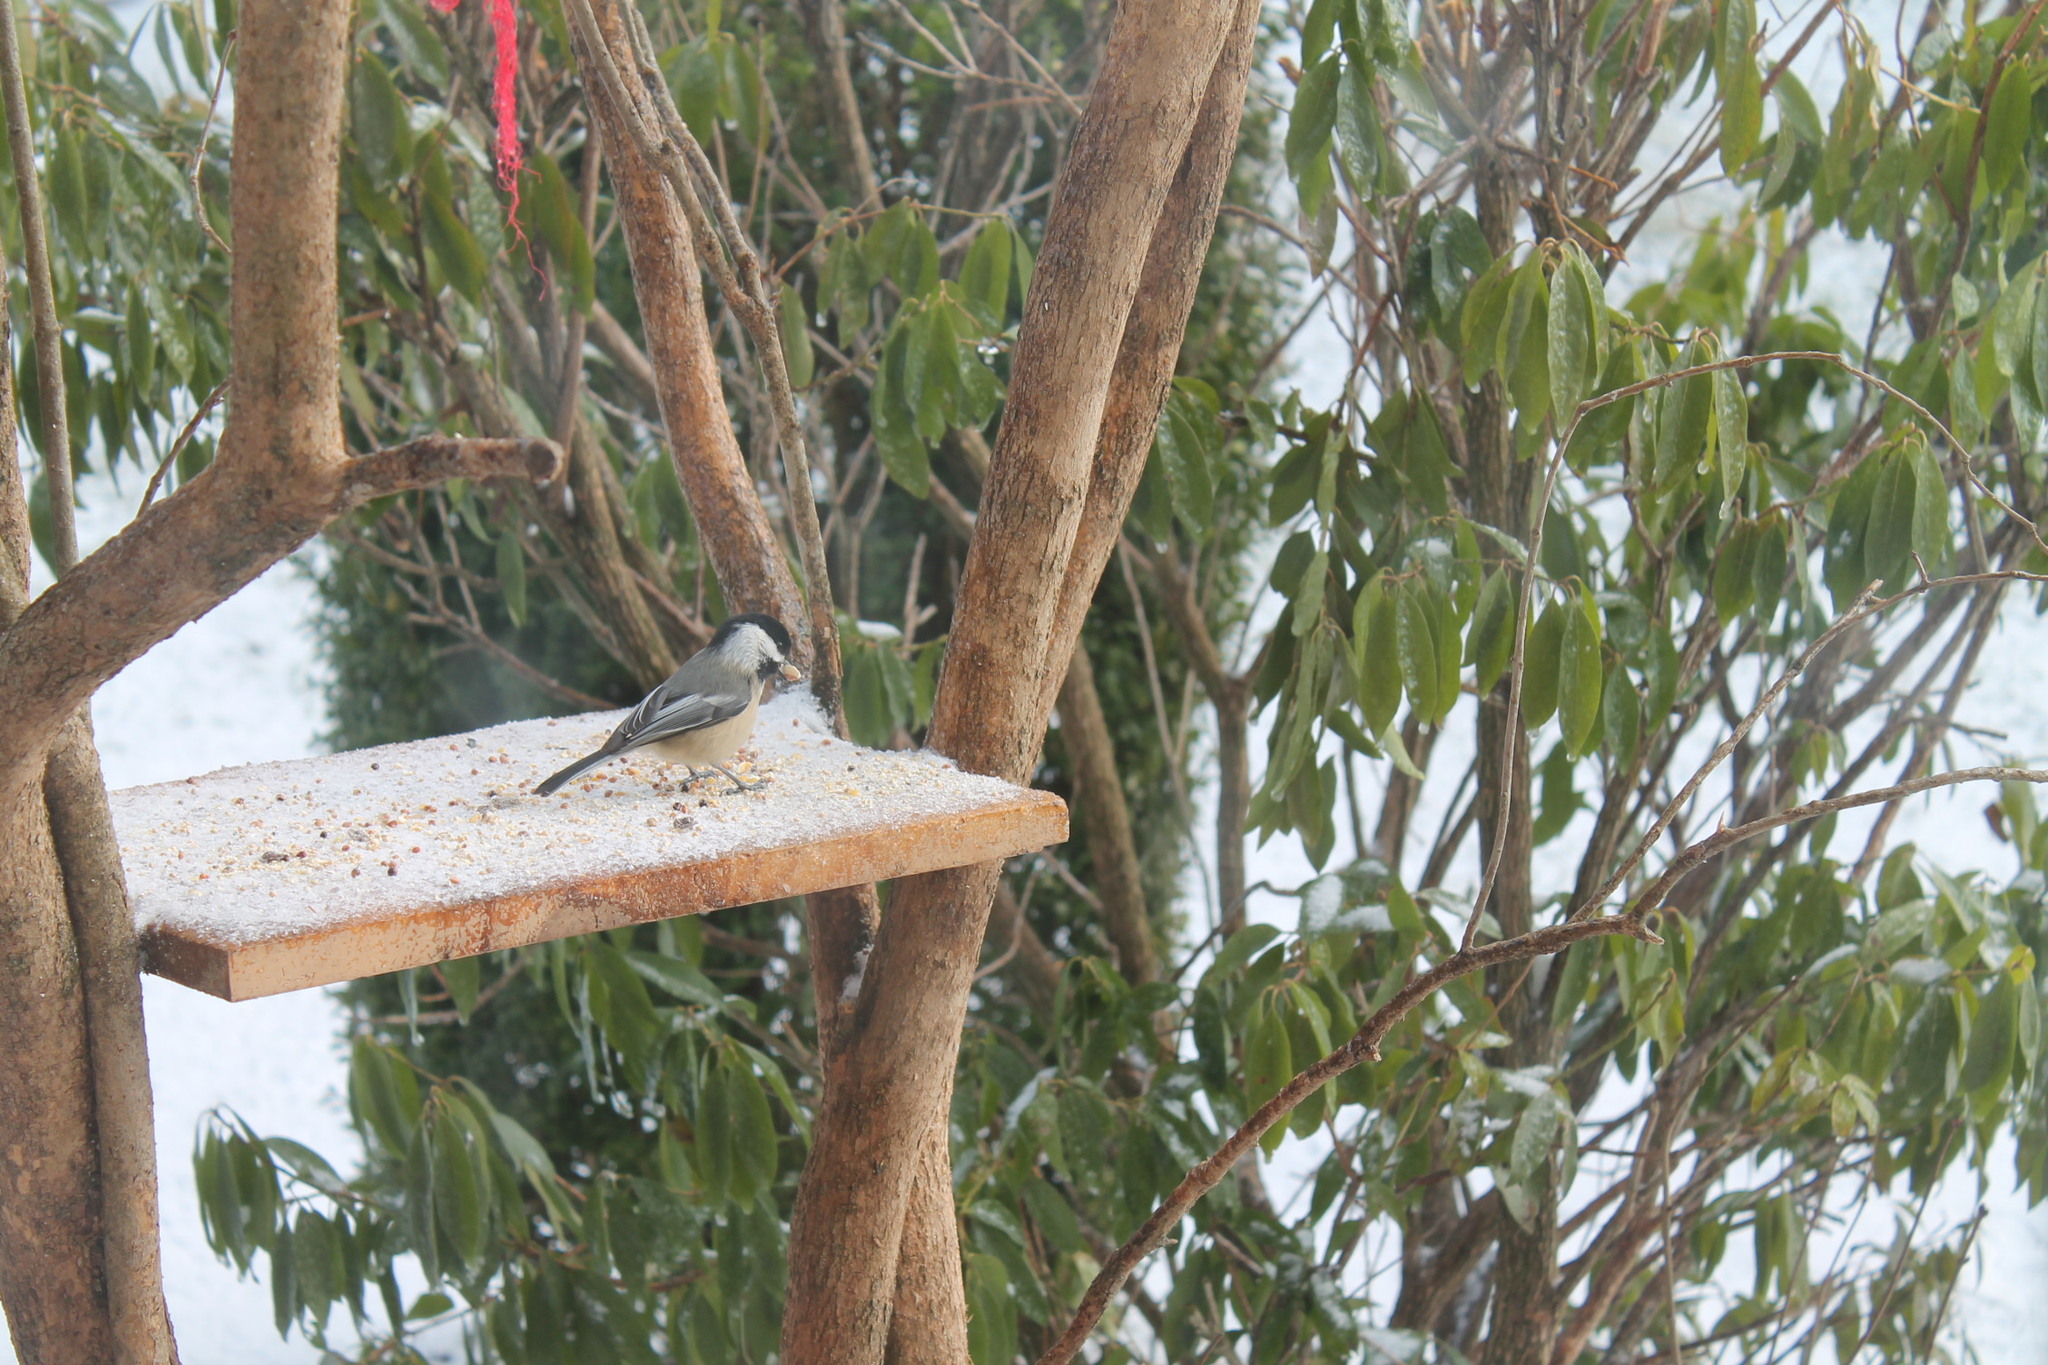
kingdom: Animalia
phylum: Chordata
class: Aves
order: Passeriformes
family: Paridae
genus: Poecile
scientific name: Poecile atricapillus
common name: Black-capped chickadee
